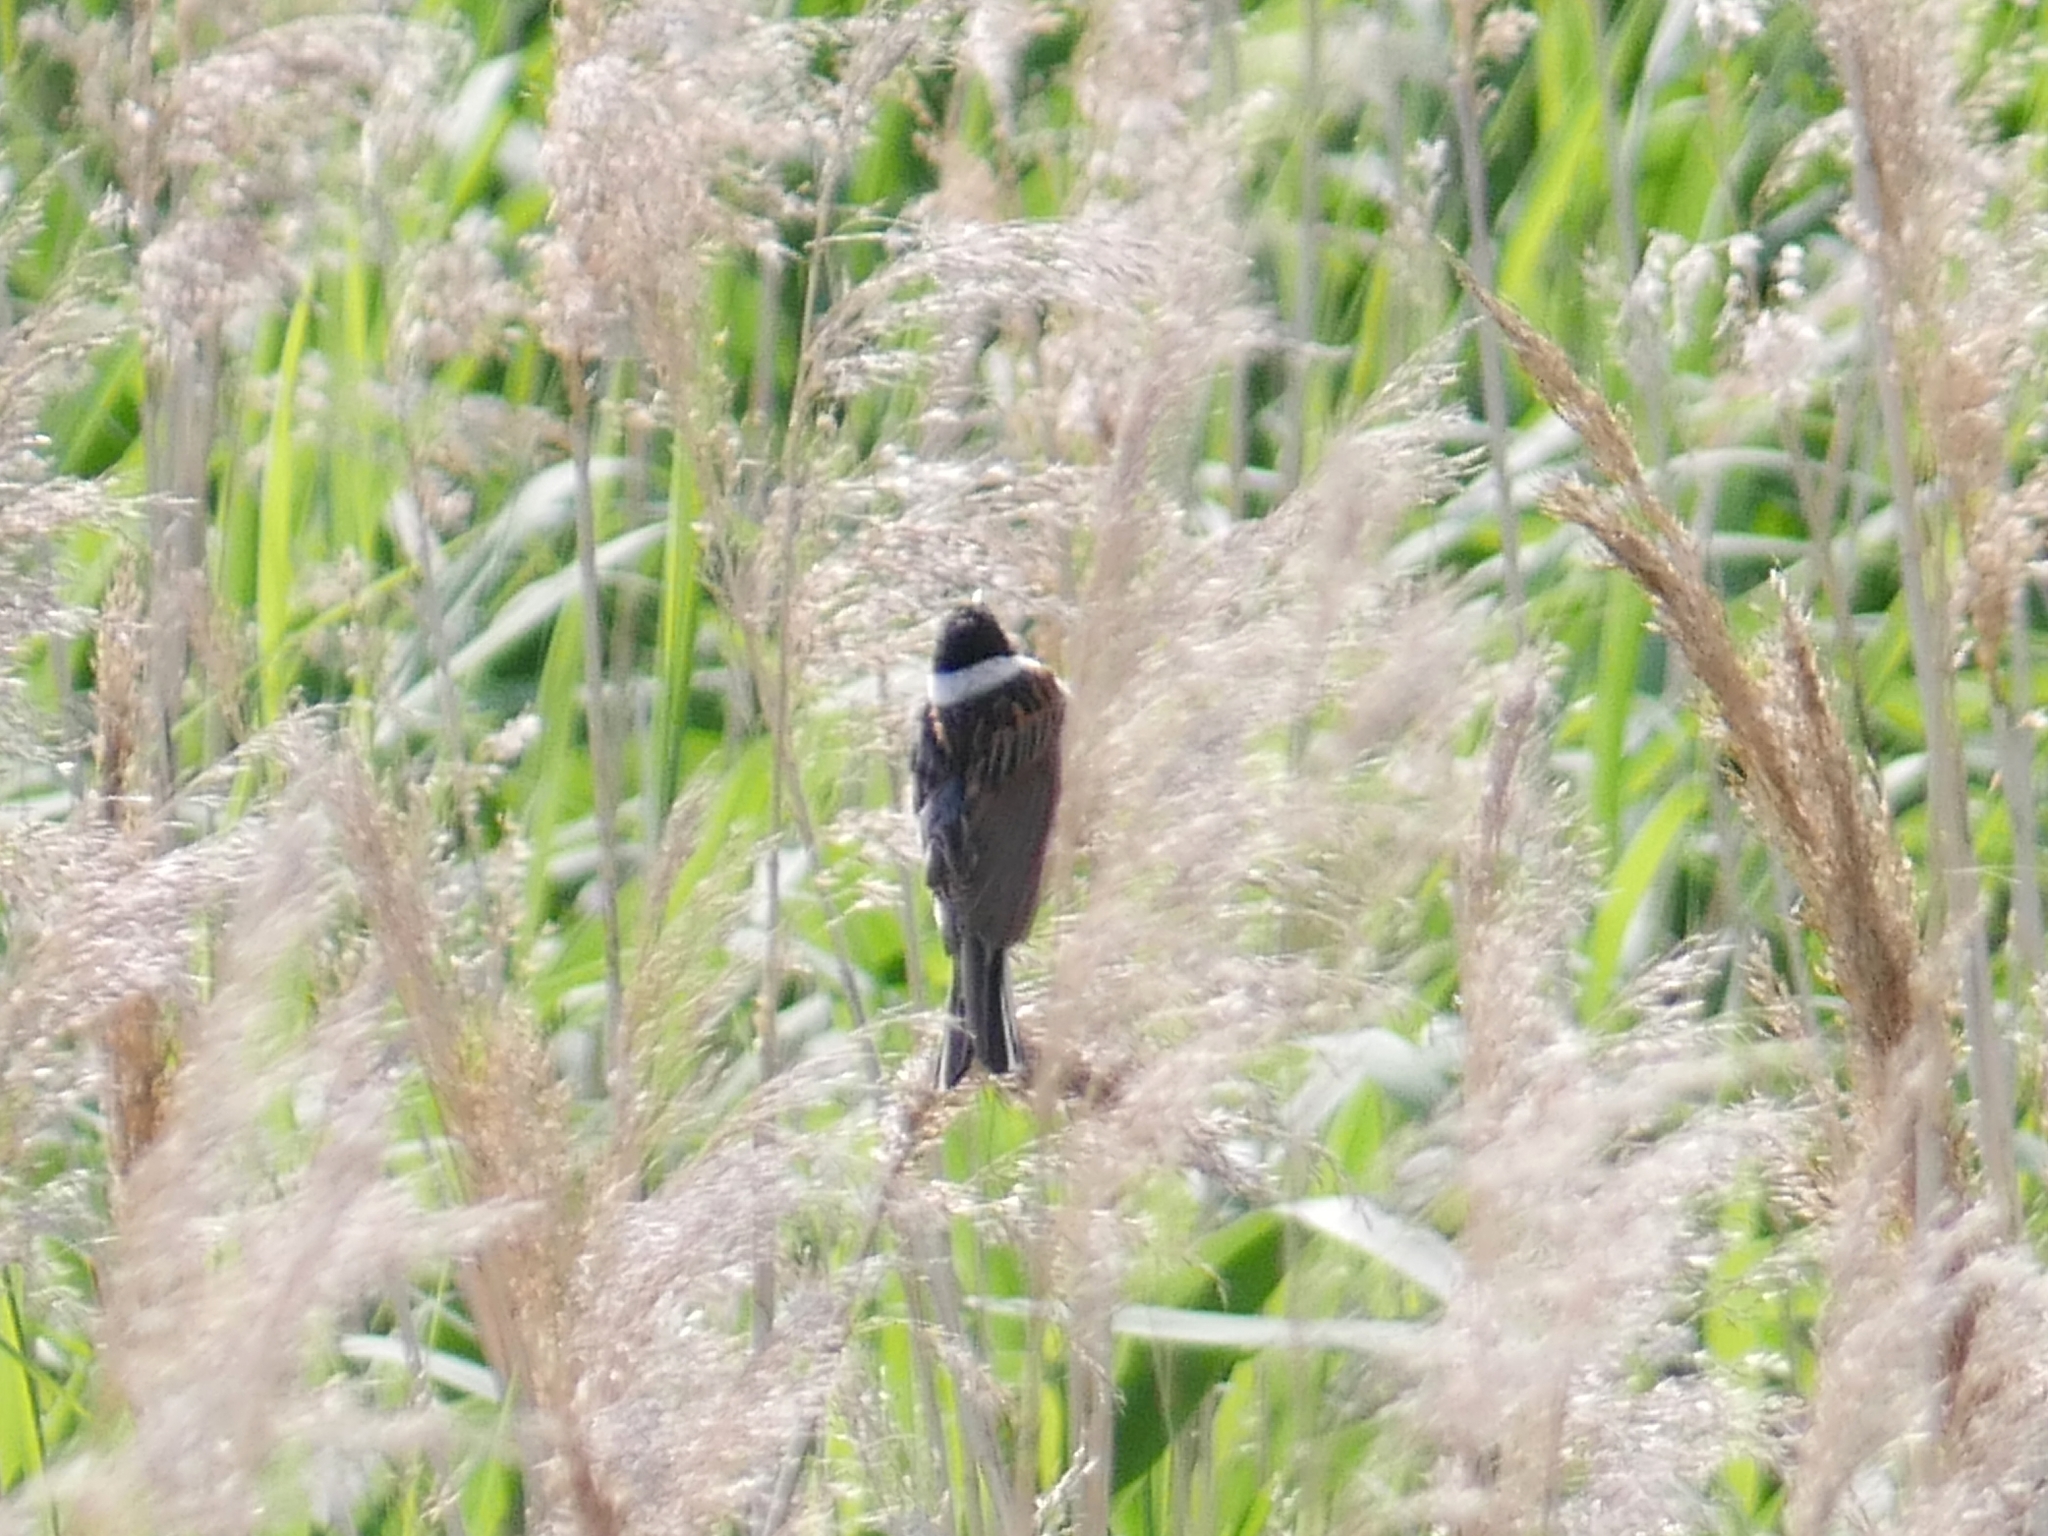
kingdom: Animalia
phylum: Chordata
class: Aves
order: Passeriformes
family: Emberizidae
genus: Emberiza
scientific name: Emberiza schoeniclus
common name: Reed bunting
